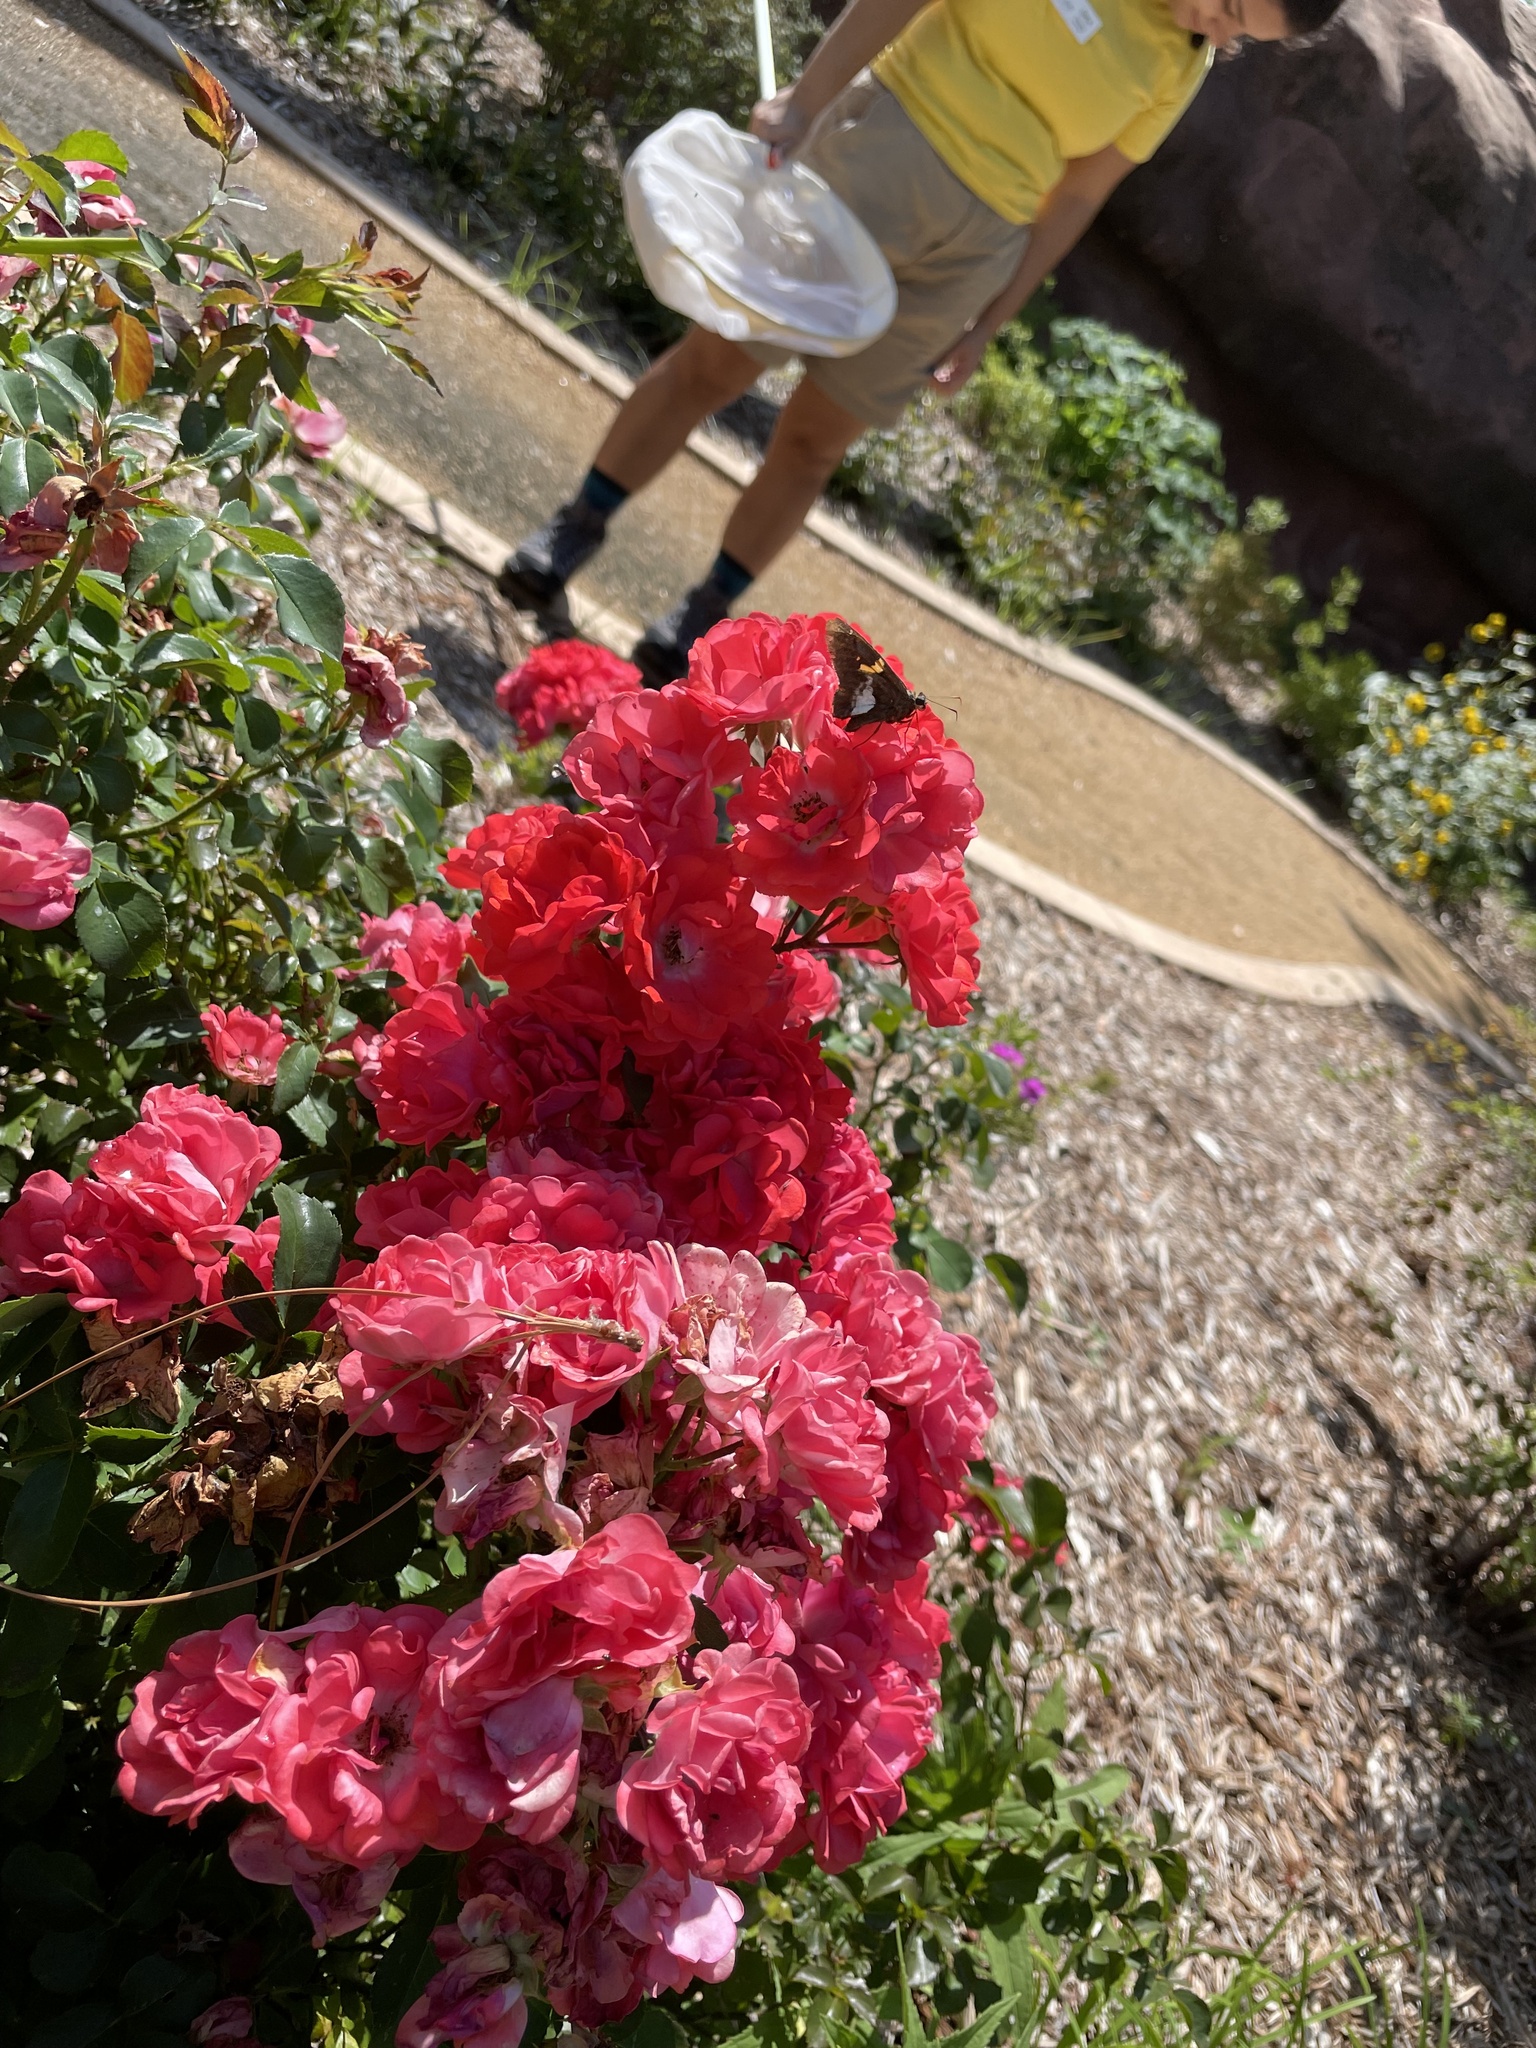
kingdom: Animalia
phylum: Arthropoda
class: Insecta
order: Lepidoptera
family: Hesperiidae
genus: Epargyreus
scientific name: Epargyreus clarus
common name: Silver-spotted skipper
